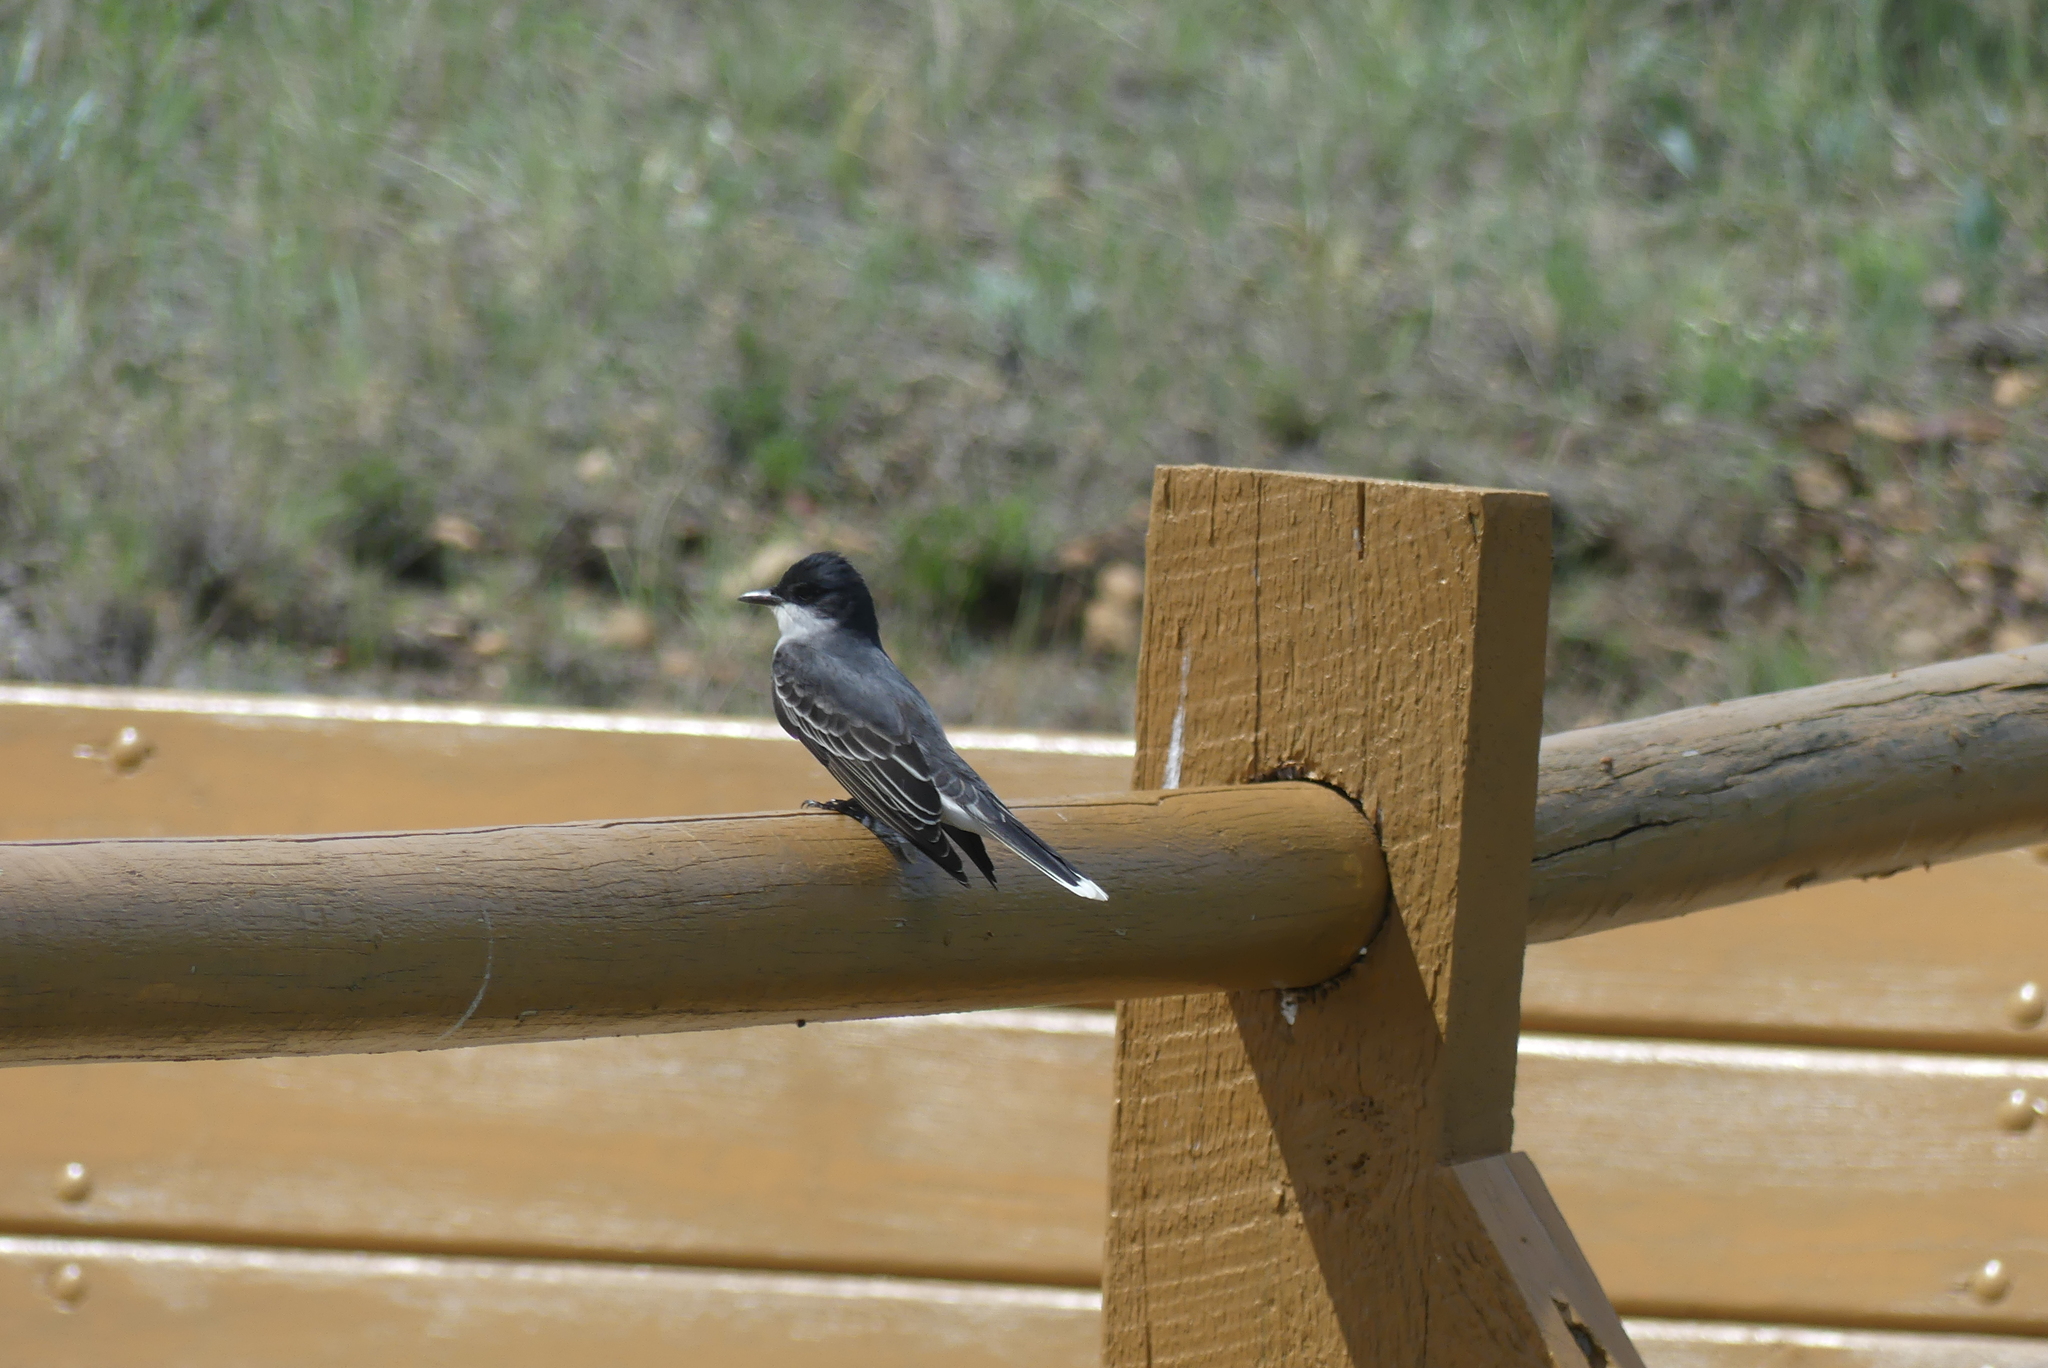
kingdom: Animalia
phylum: Chordata
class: Aves
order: Passeriformes
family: Tyrannidae
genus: Tyrannus
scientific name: Tyrannus tyrannus
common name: Eastern kingbird
